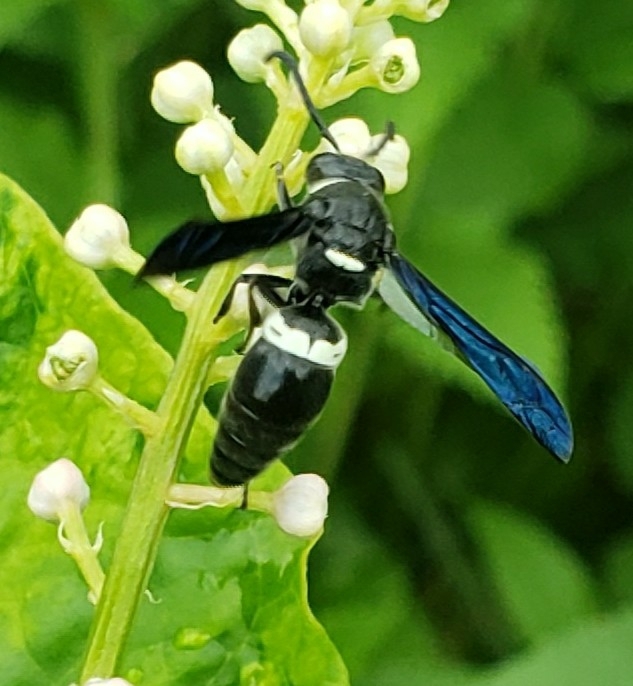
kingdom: Animalia
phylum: Arthropoda
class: Insecta
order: Hymenoptera
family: Eumenidae
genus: Monobia
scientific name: Monobia quadridens
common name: Four-toothed mason wasp
